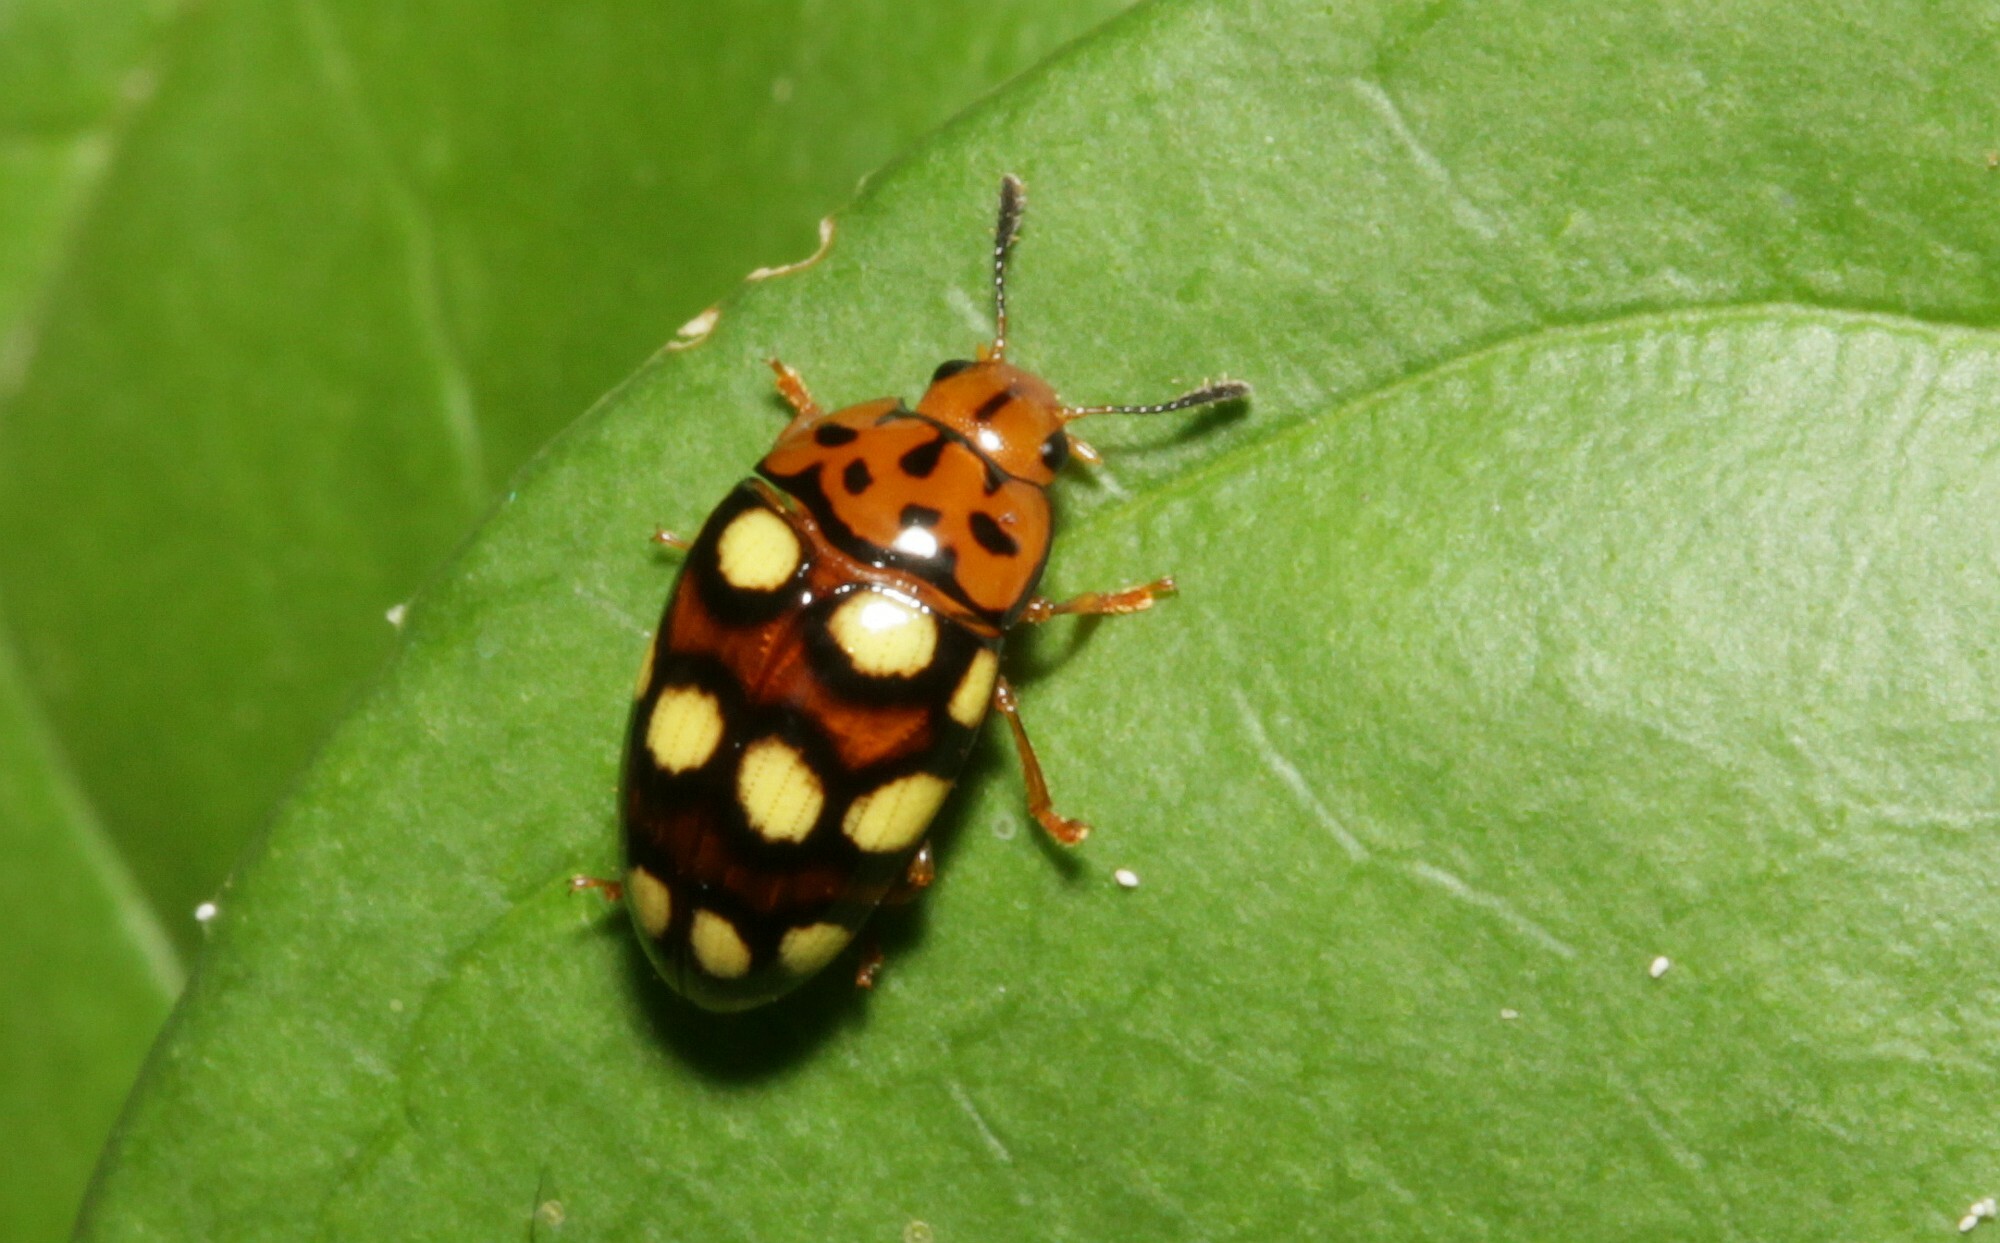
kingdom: Animalia
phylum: Arthropoda
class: Insecta
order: Coleoptera
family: Erotylidae
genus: Mycotretus
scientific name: Mycotretus duodecimguttatus
